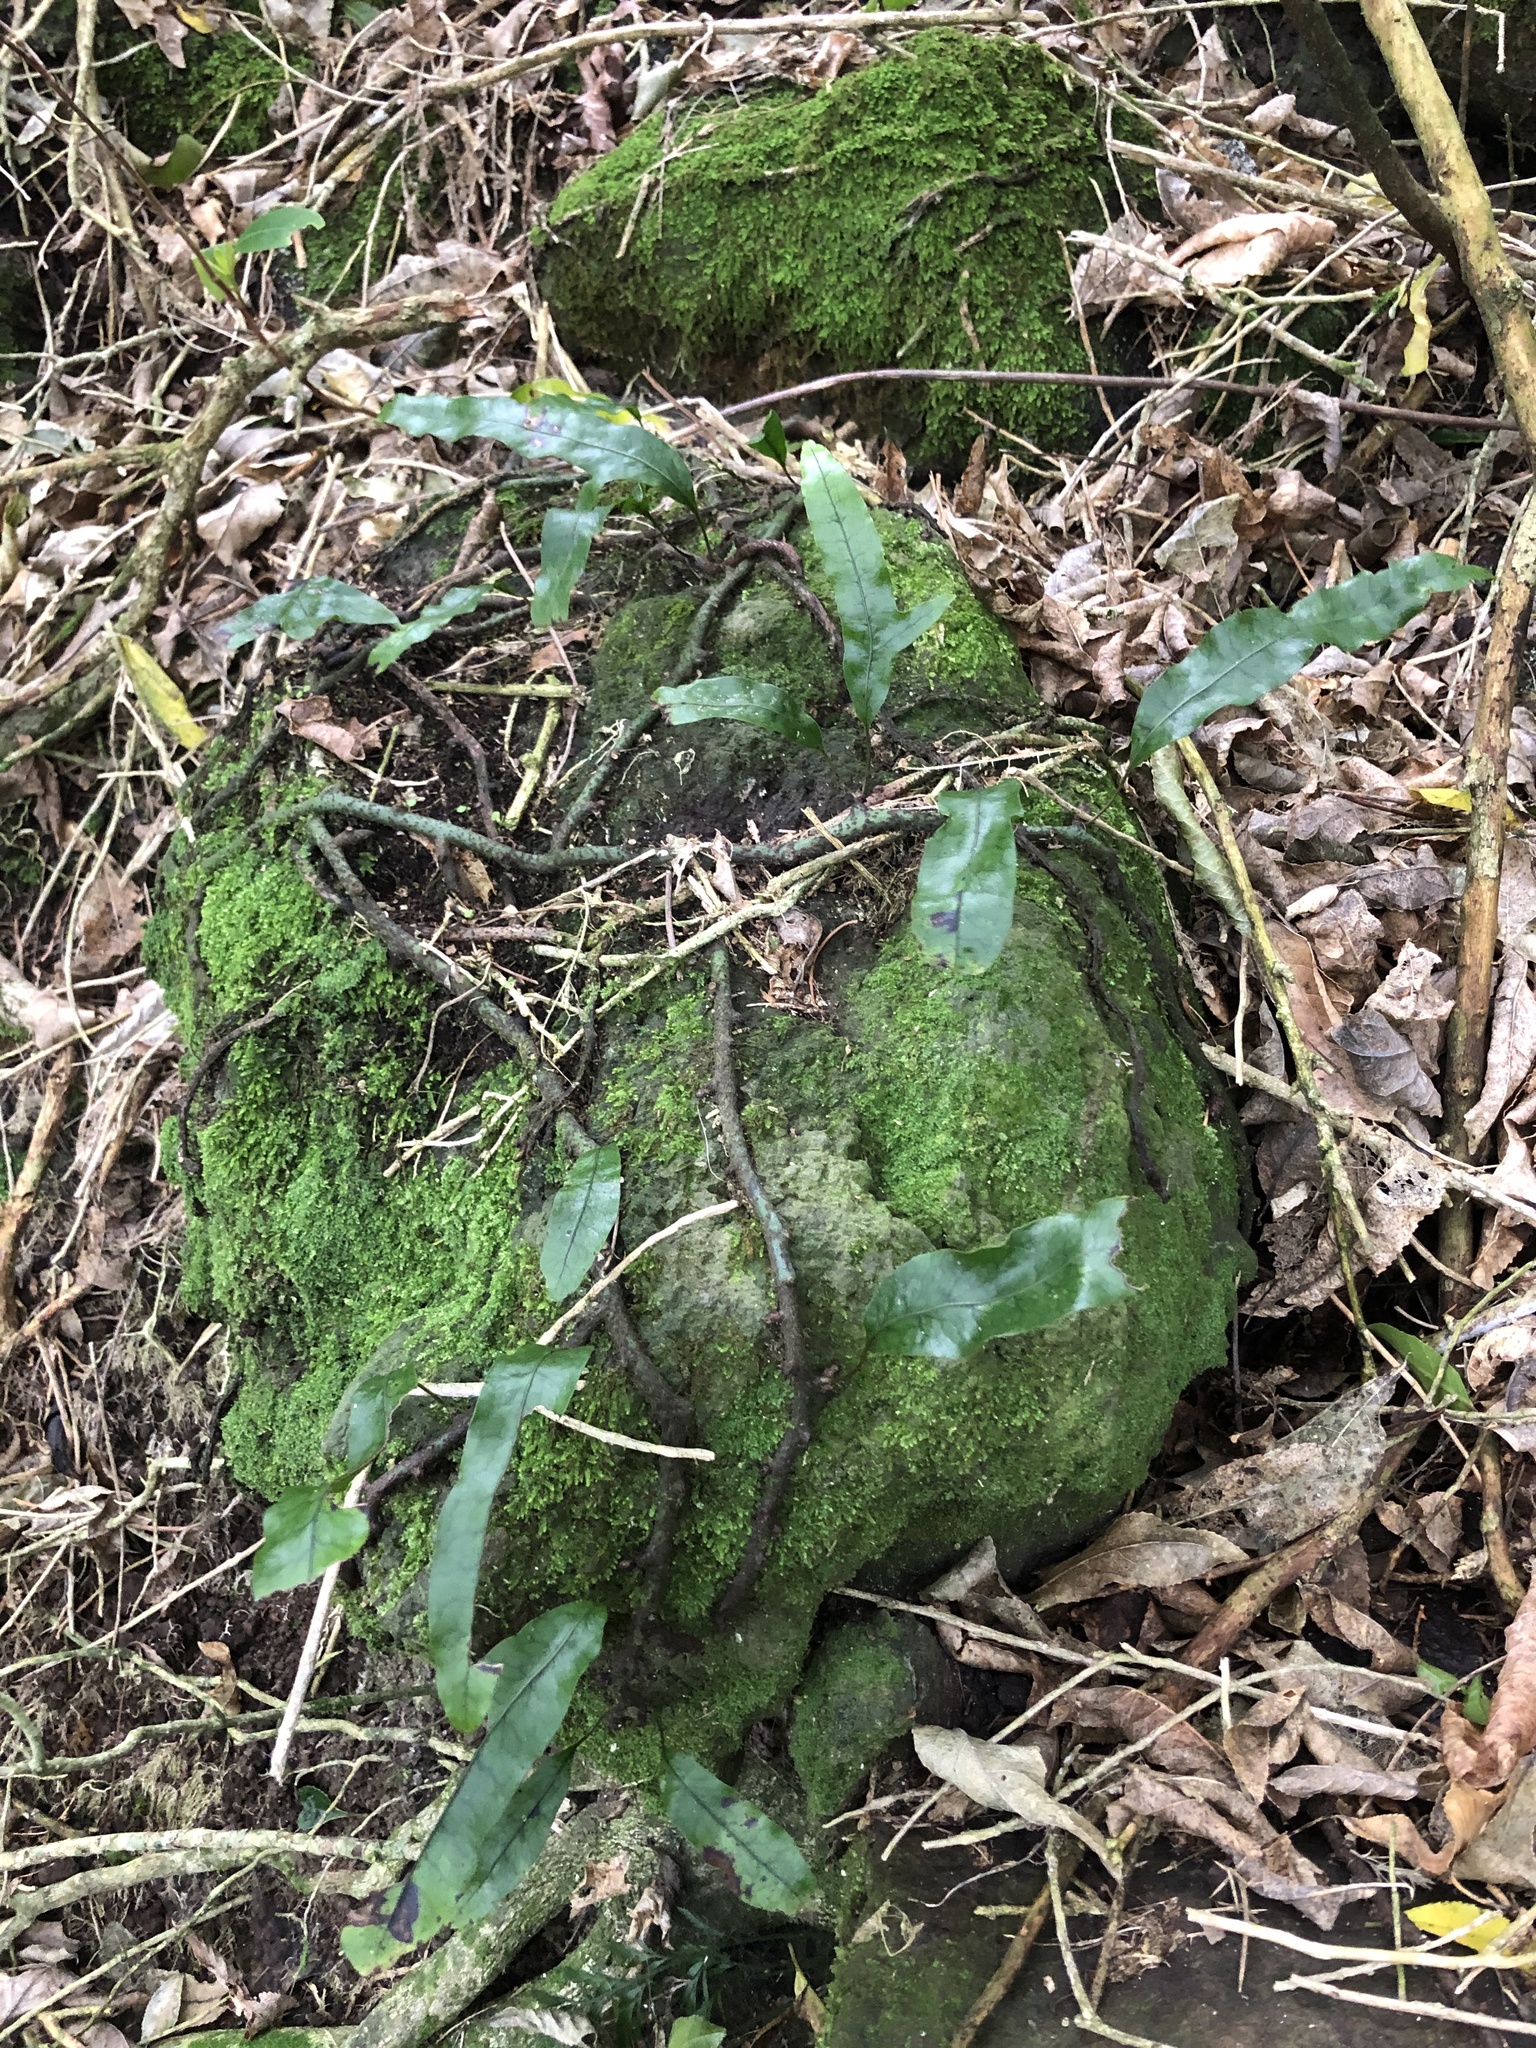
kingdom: Plantae
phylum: Tracheophyta
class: Polypodiopsida
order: Polypodiales
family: Polypodiaceae
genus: Lecanopteris
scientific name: Lecanopteris pustulata
